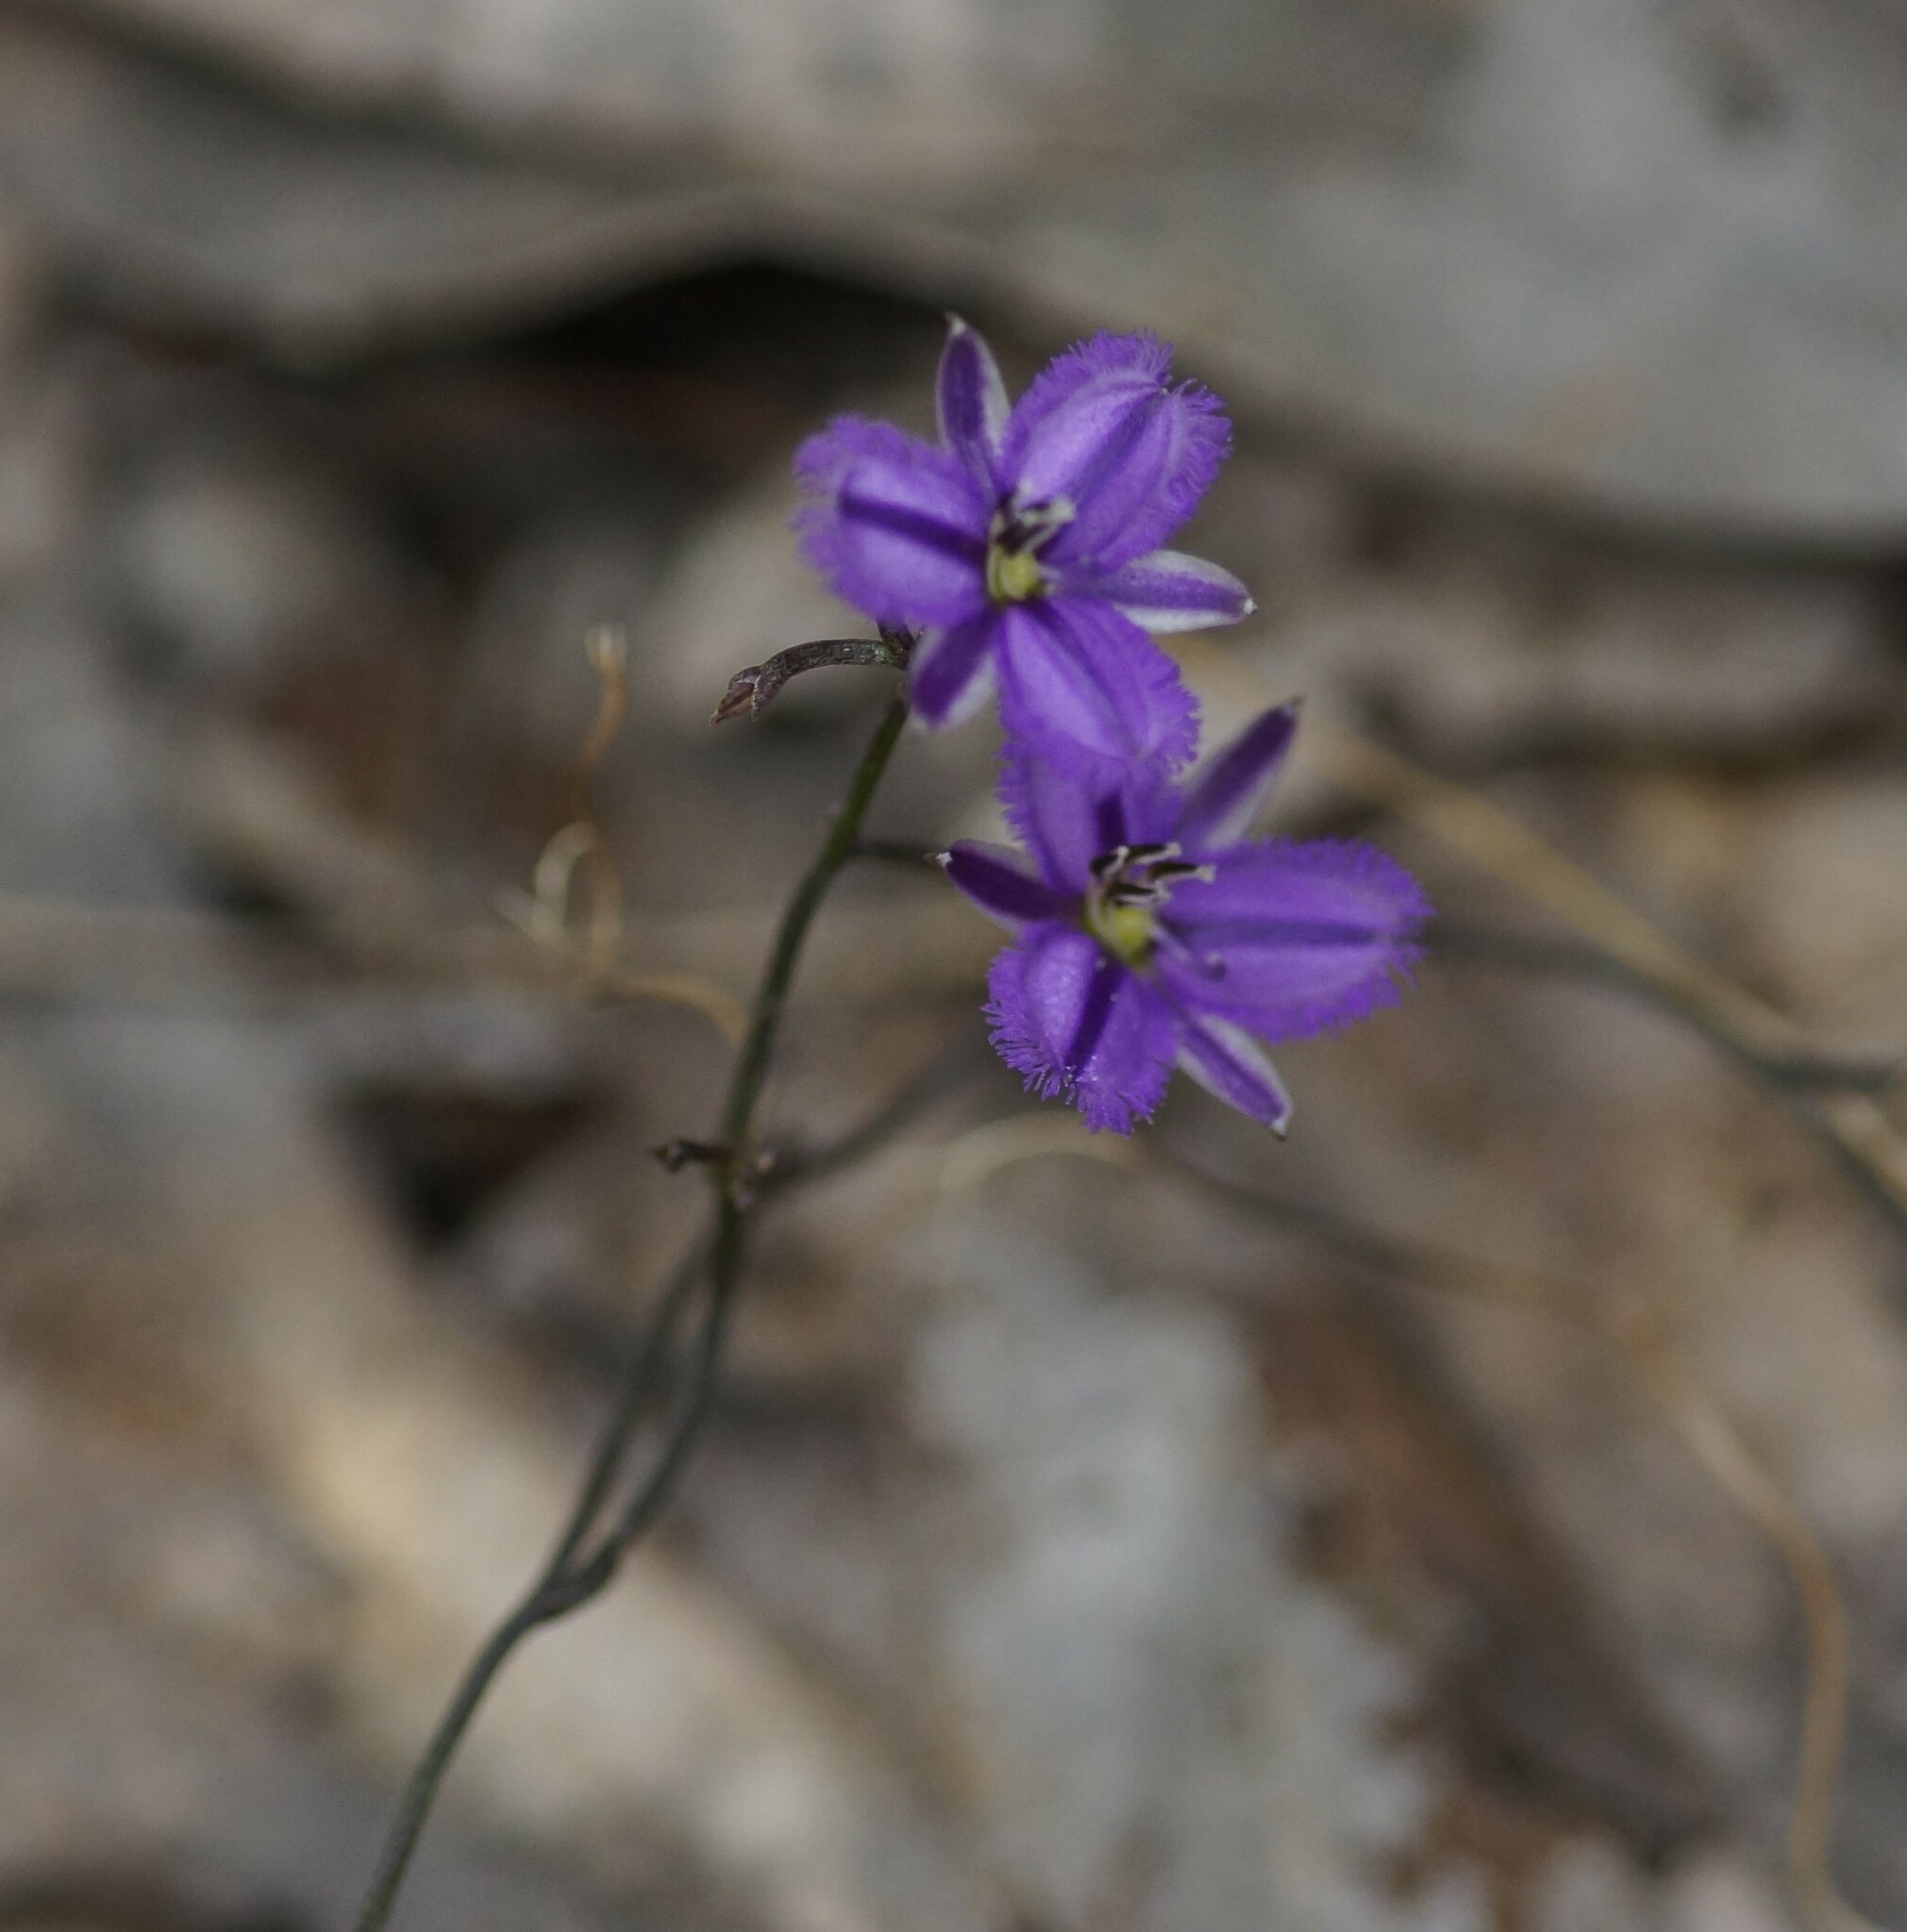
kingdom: Plantae
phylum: Tracheophyta
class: Liliopsida
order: Asparagales
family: Asparagaceae
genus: Thysanotus
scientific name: Thysanotus patersonii
